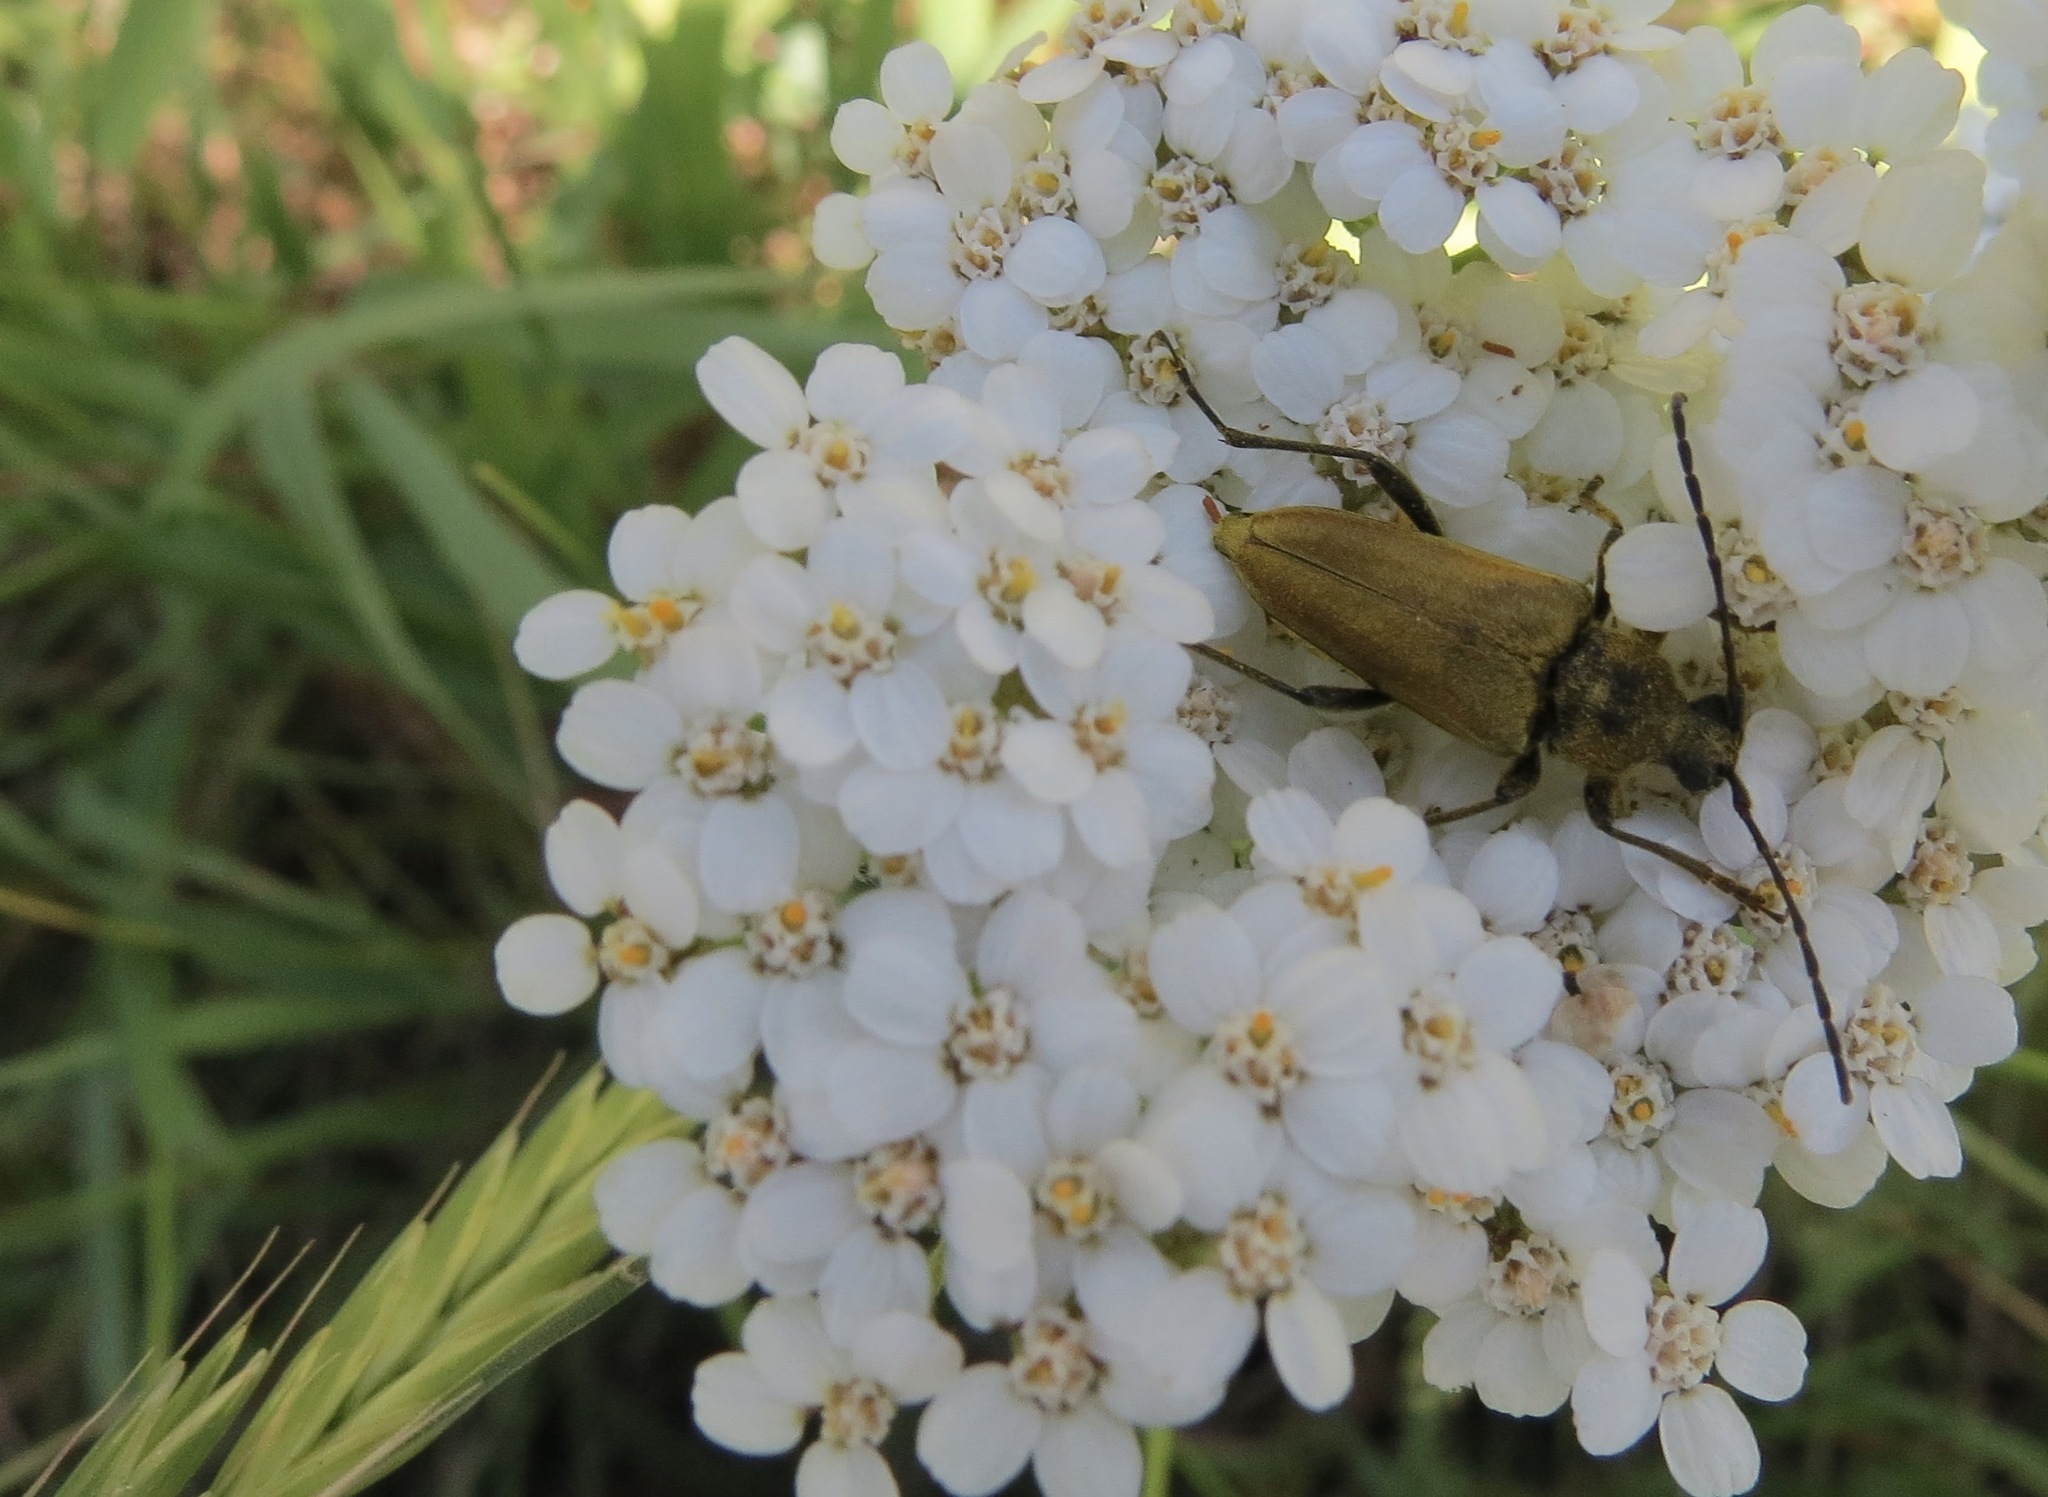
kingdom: Animalia
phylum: Arthropoda
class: Insecta
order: Coleoptera
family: Cerambycidae
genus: Cosmosalia
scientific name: Cosmosalia chrysocoma
